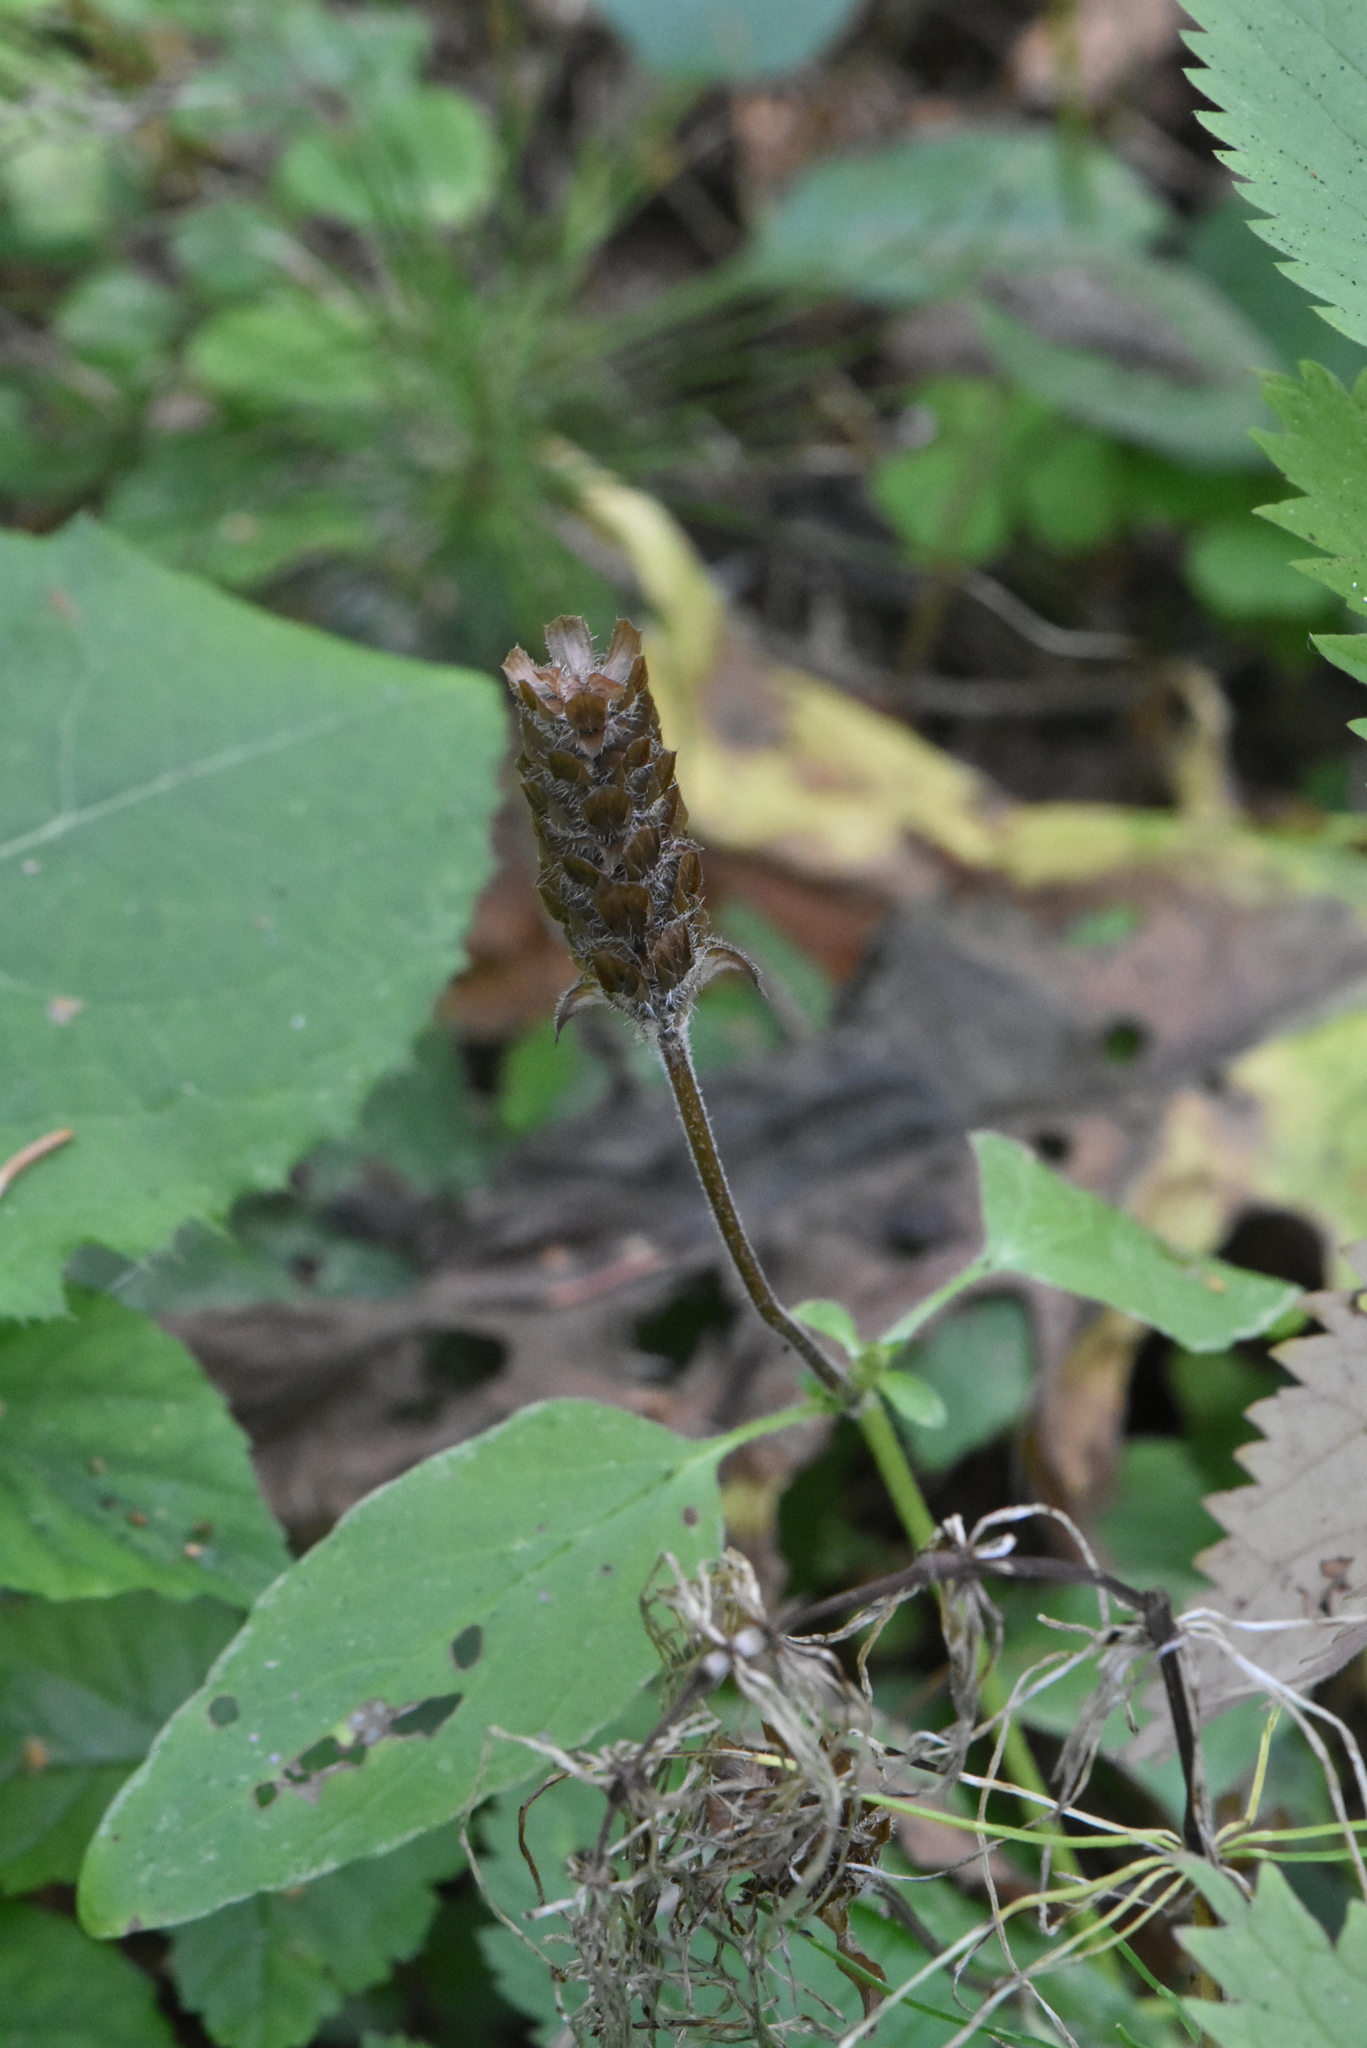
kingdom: Plantae
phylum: Tracheophyta
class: Magnoliopsida
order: Lamiales
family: Lamiaceae
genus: Prunella
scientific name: Prunella vulgaris
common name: Heal-all
